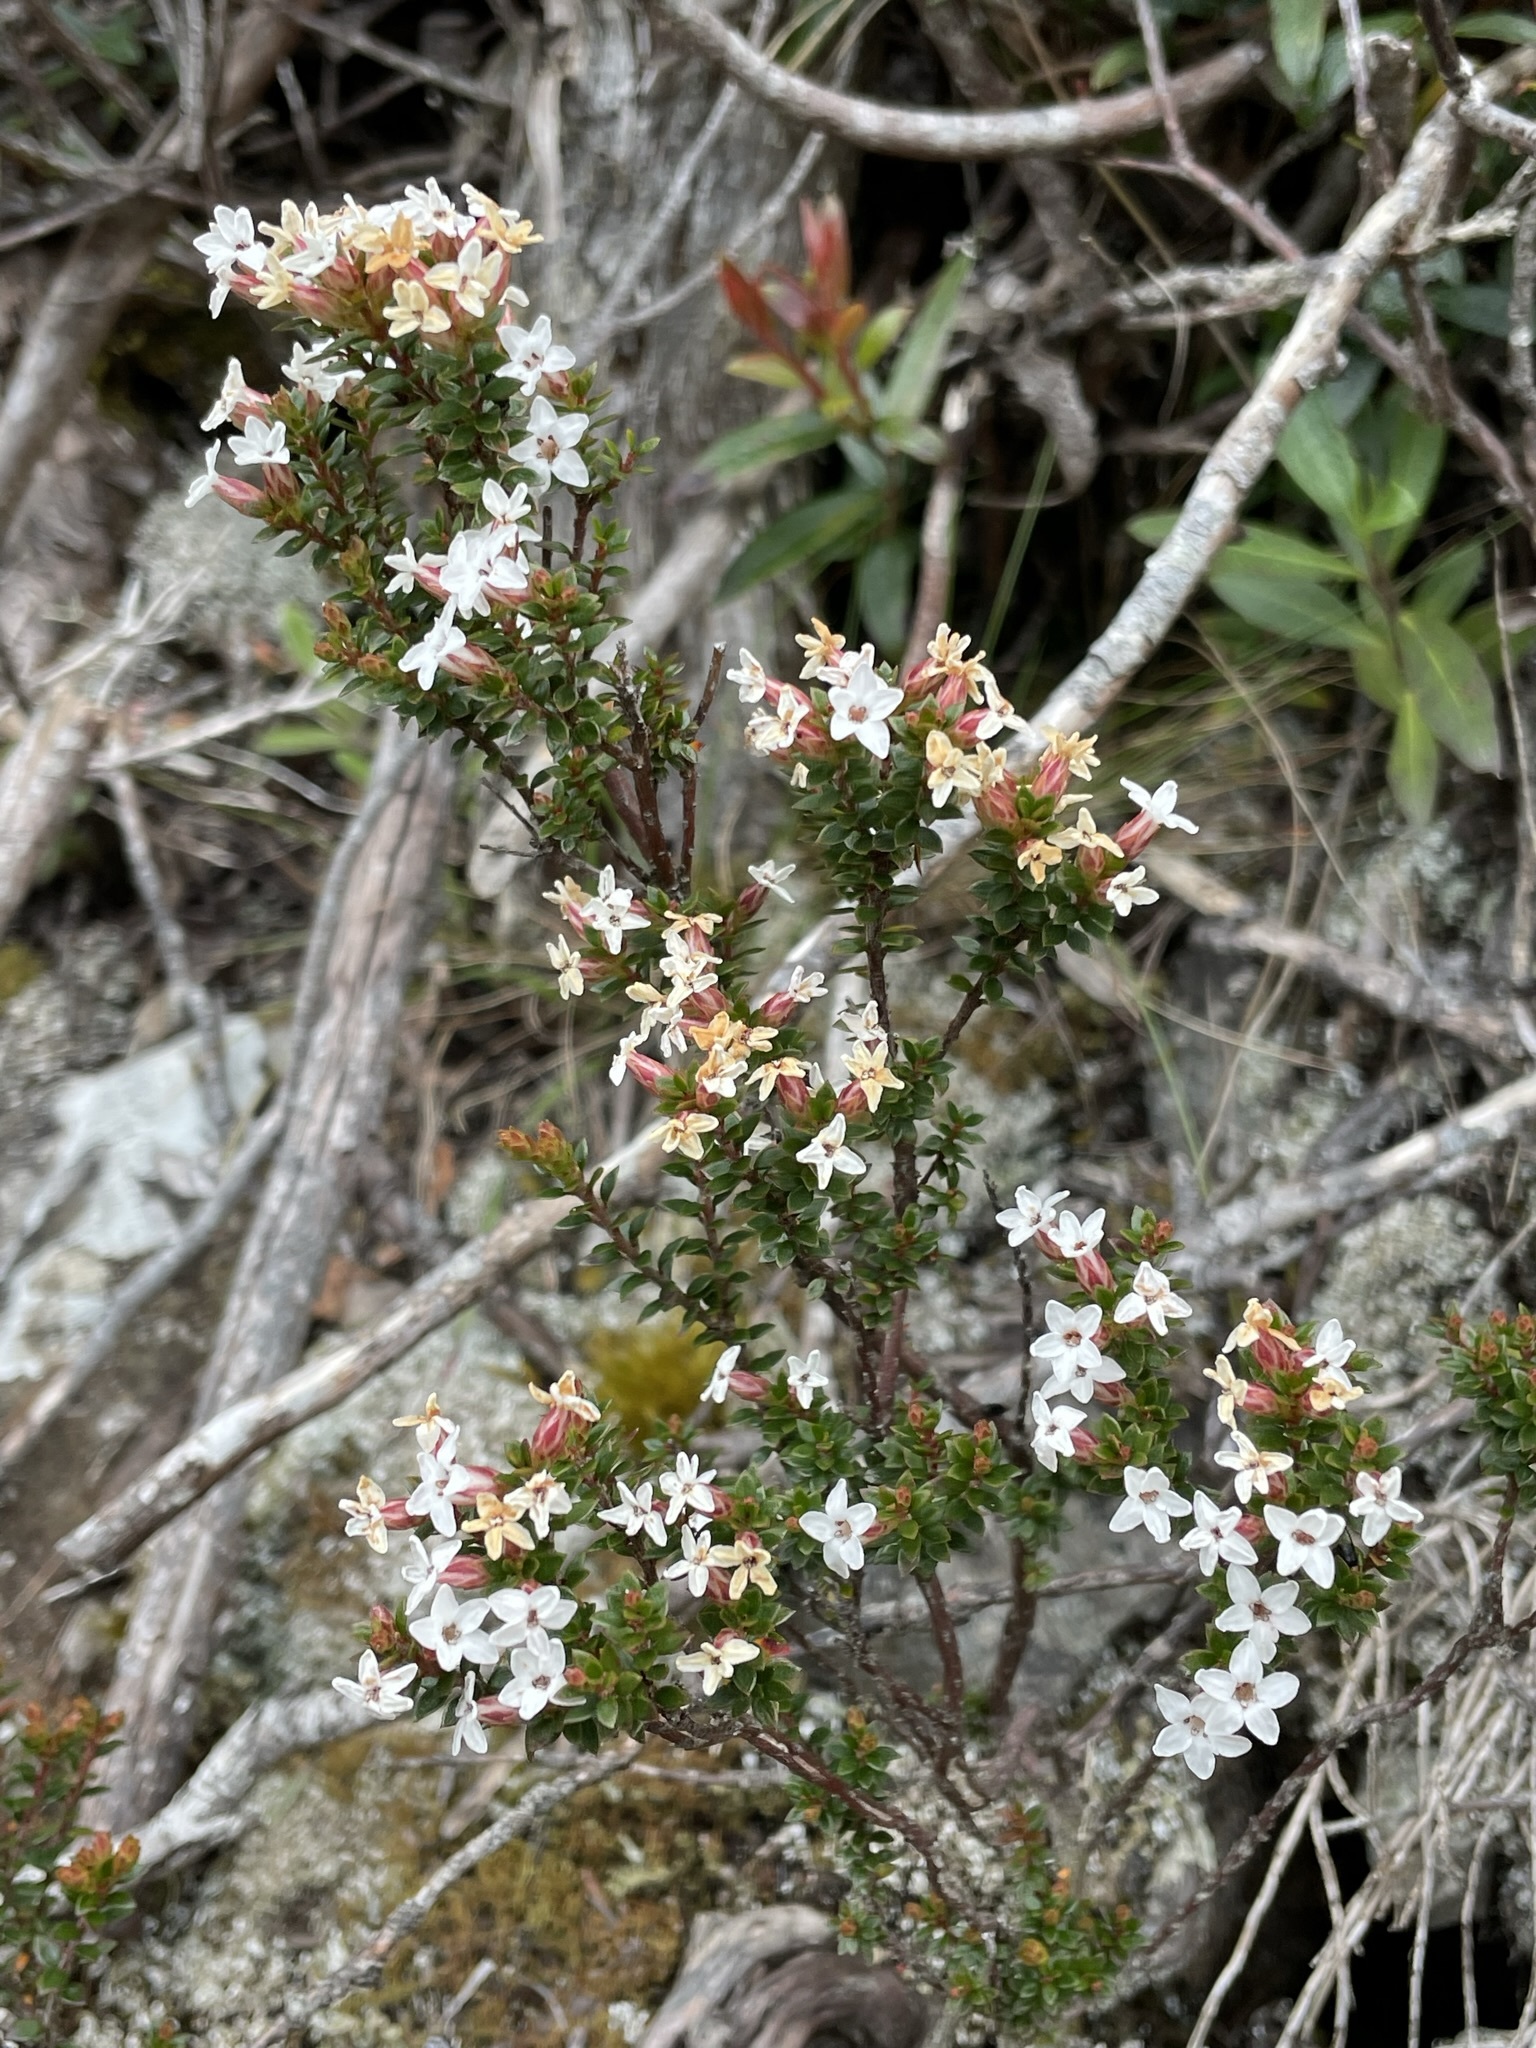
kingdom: Plantae
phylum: Tracheophyta
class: Magnoliopsida
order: Ericales
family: Ericaceae
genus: Epacris
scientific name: Epacris serpyllifolia
